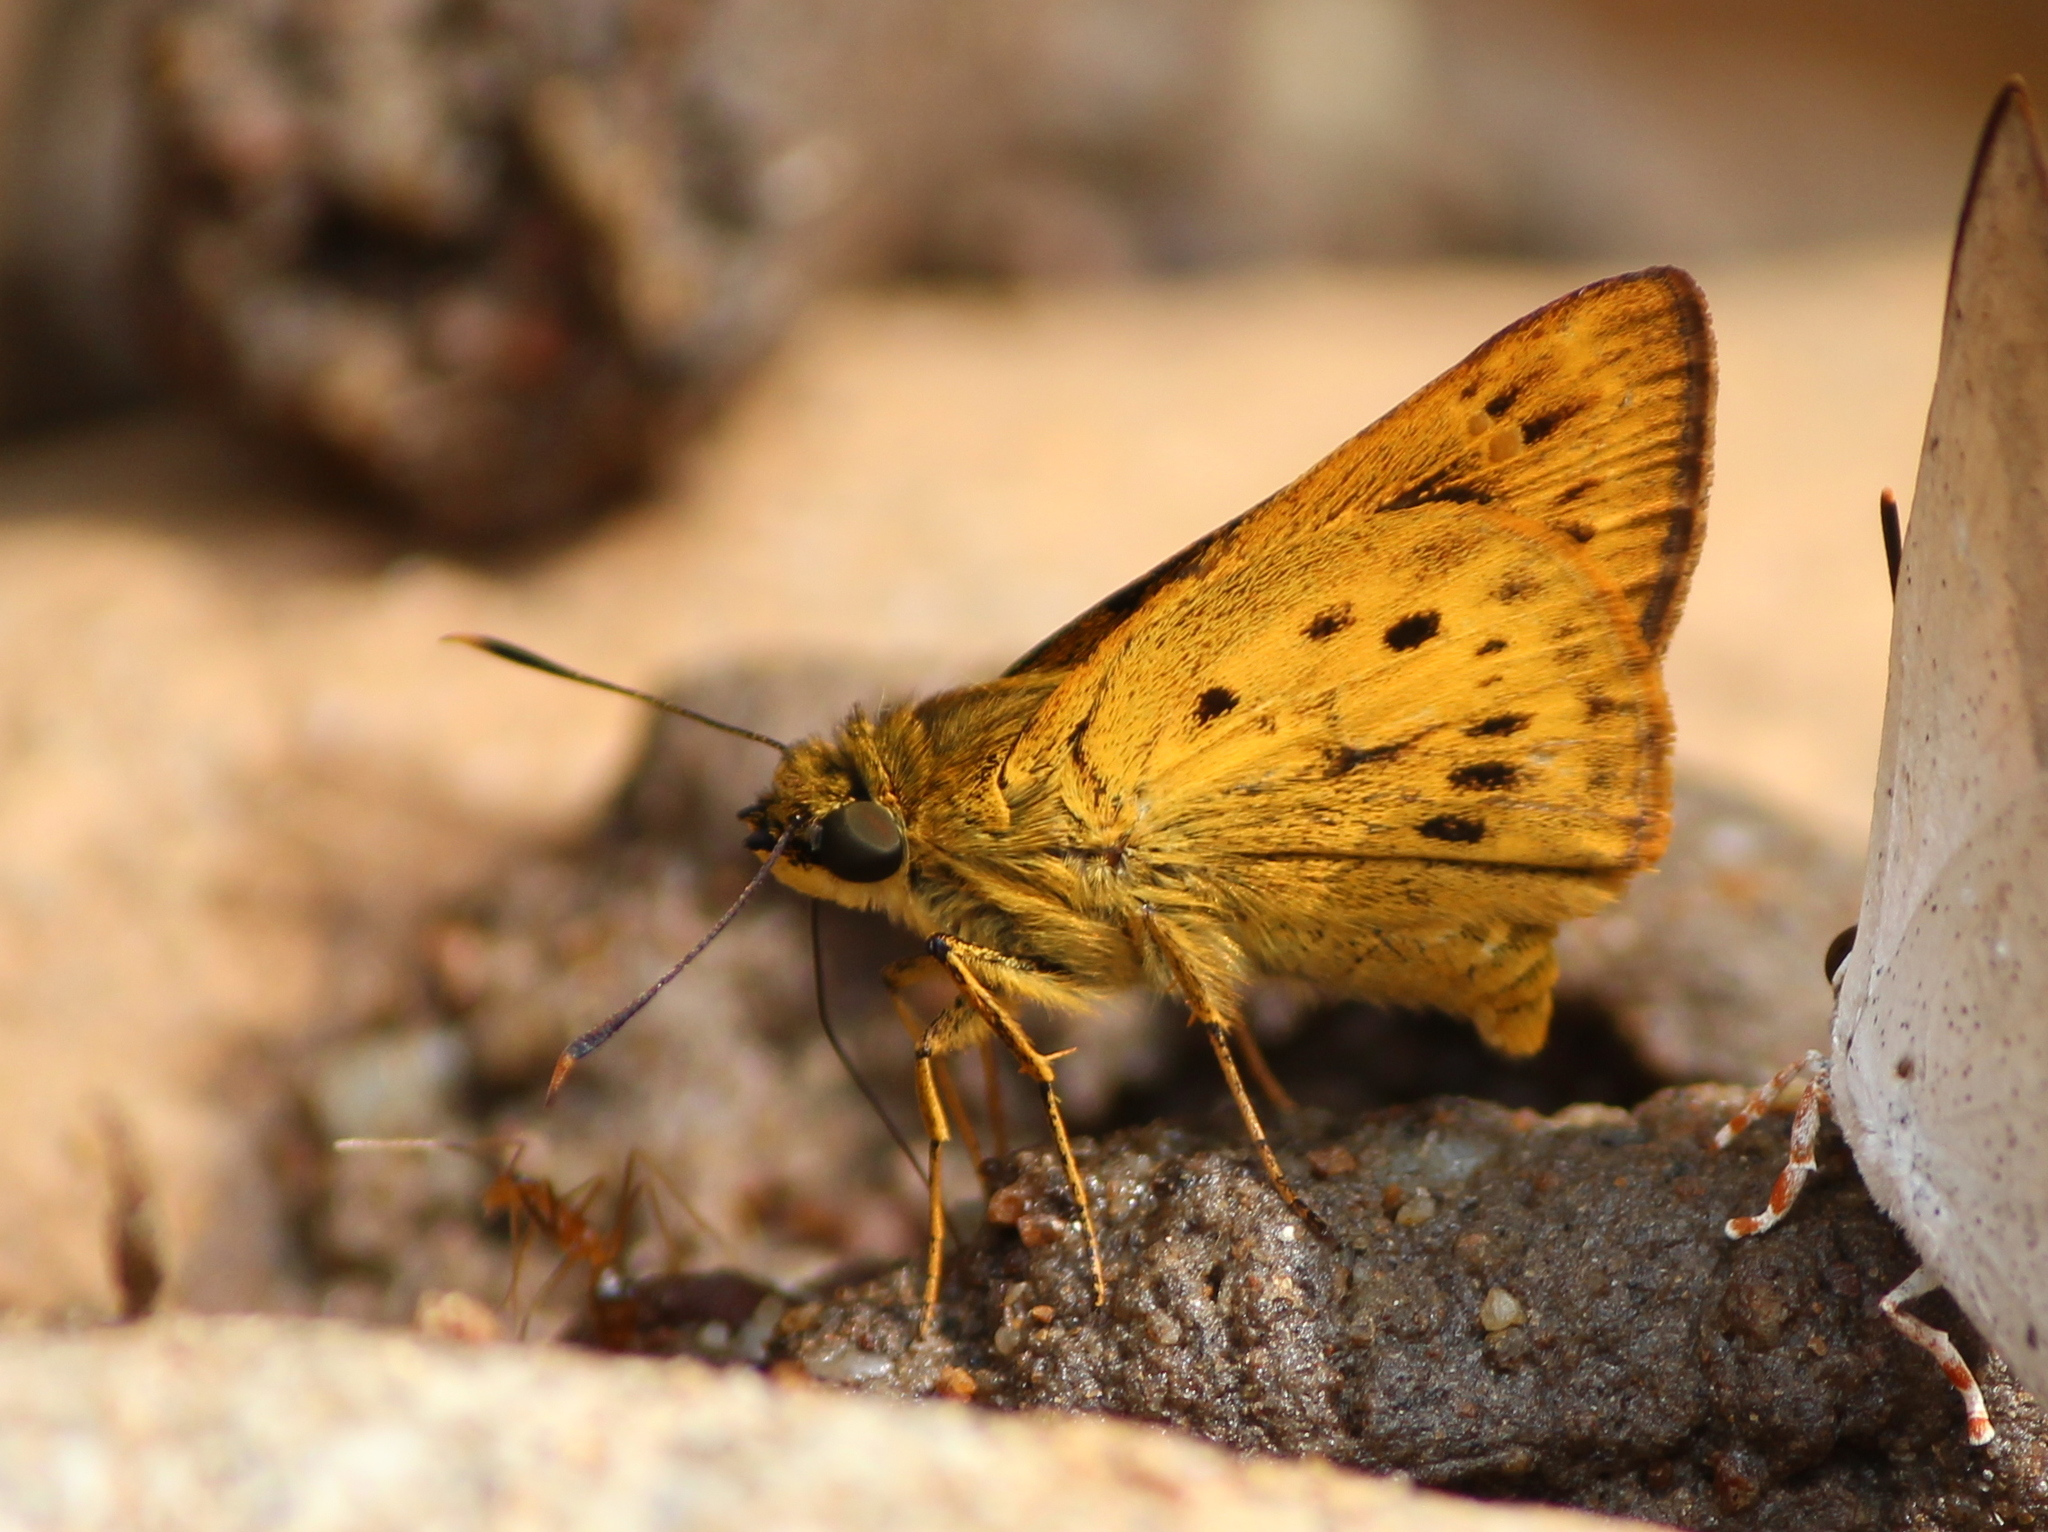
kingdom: Animalia
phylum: Arthropoda
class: Insecta
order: Lepidoptera
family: Hesperiidae
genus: Thoressa
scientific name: Thoressa honorei
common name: Madras ace
